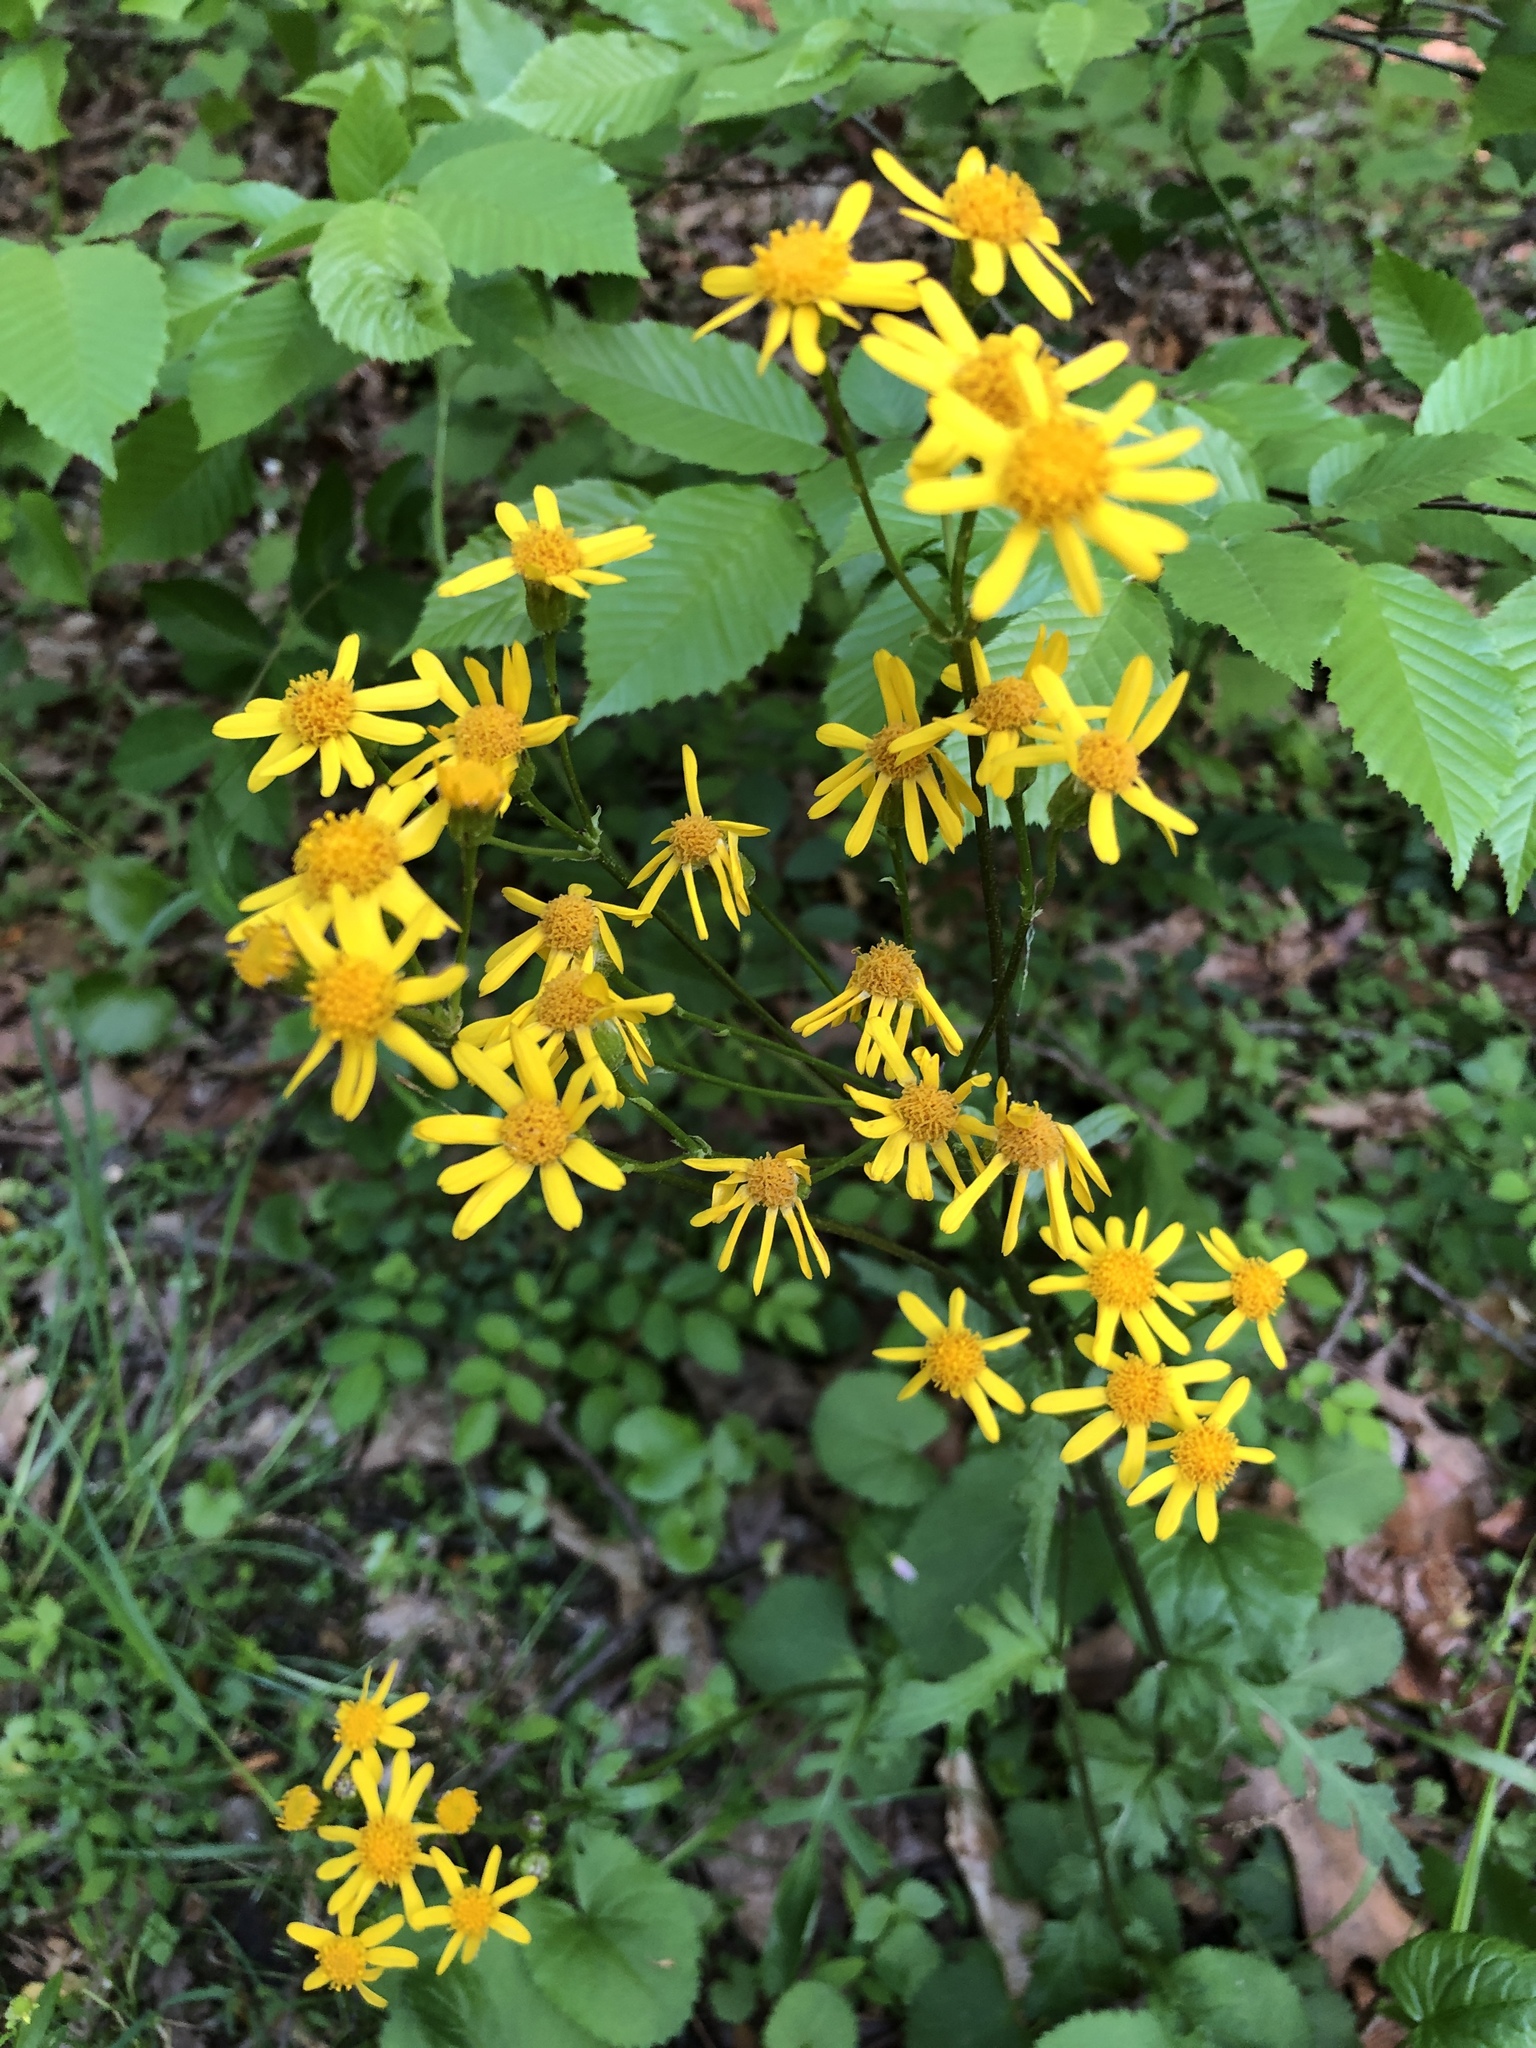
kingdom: Plantae
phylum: Tracheophyta
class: Magnoliopsida
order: Asterales
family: Asteraceae
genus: Packera
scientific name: Packera aurea
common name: Golden groundsel
